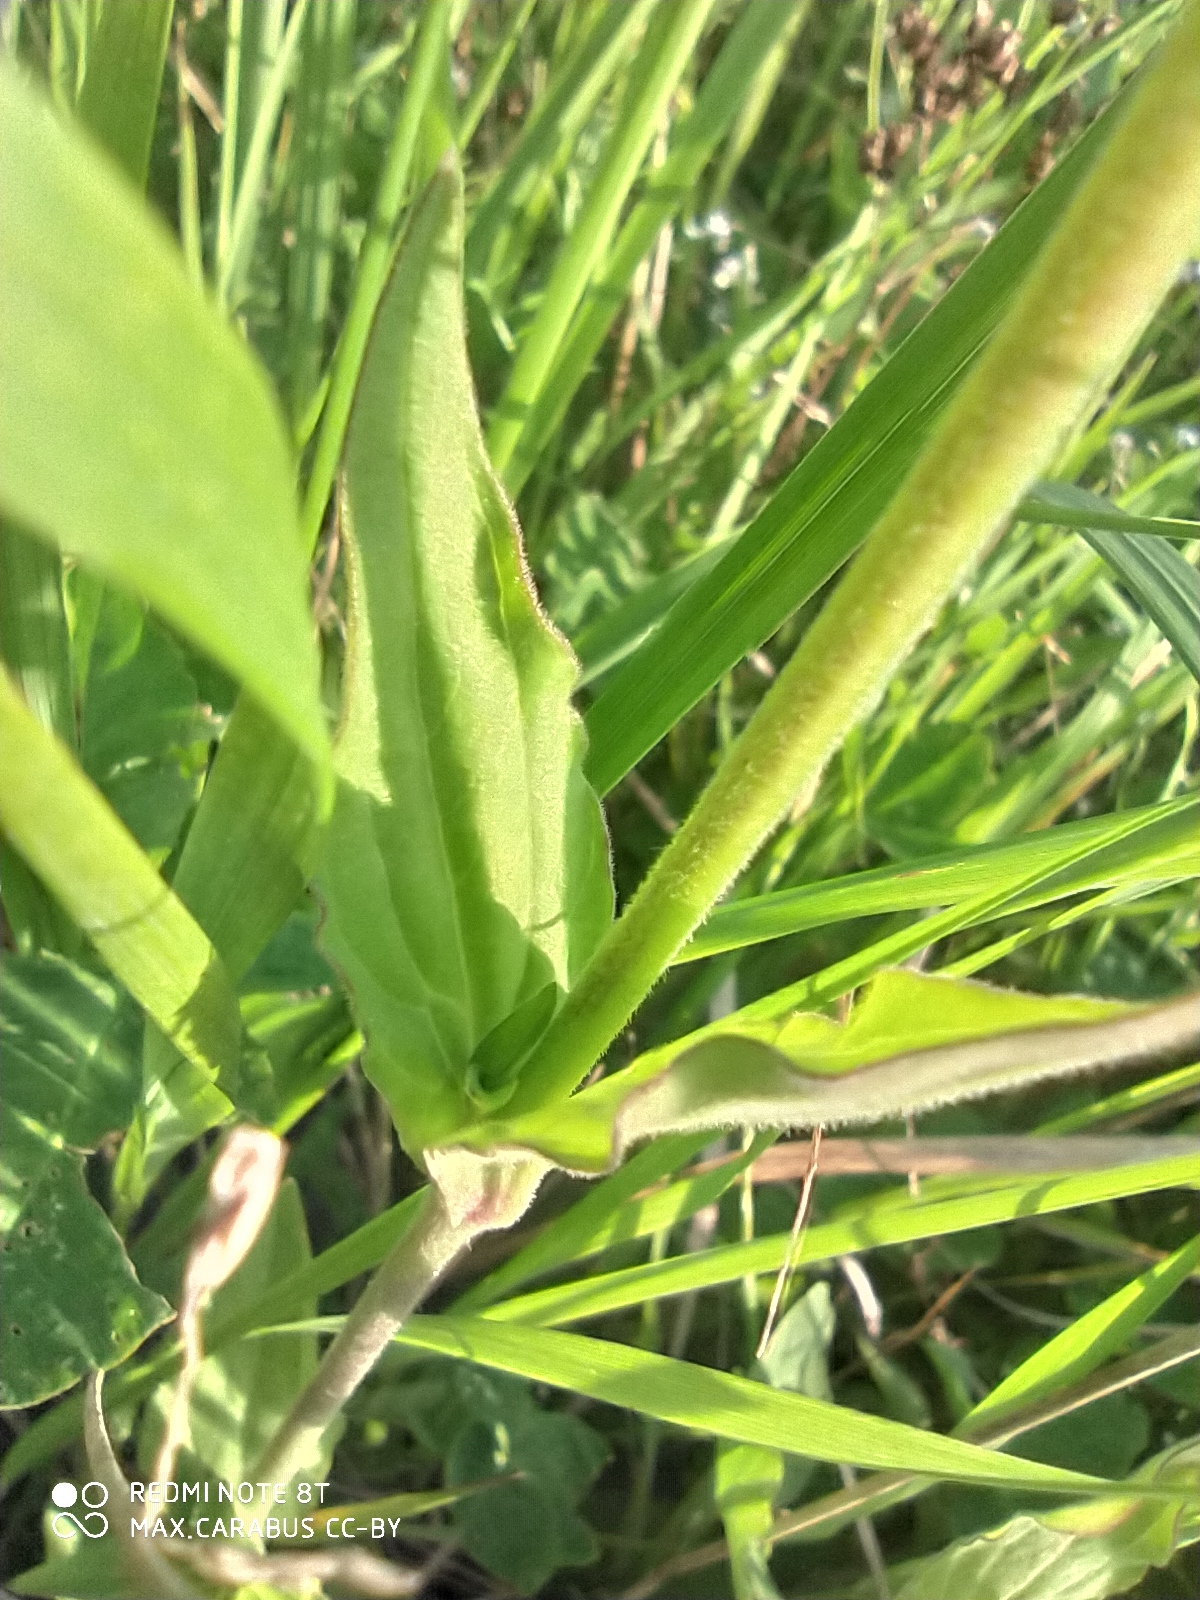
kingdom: Plantae
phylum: Tracheophyta
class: Magnoliopsida
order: Caryophyllales
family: Caryophyllaceae
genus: Silene
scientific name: Silene latifolia
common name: White campion
